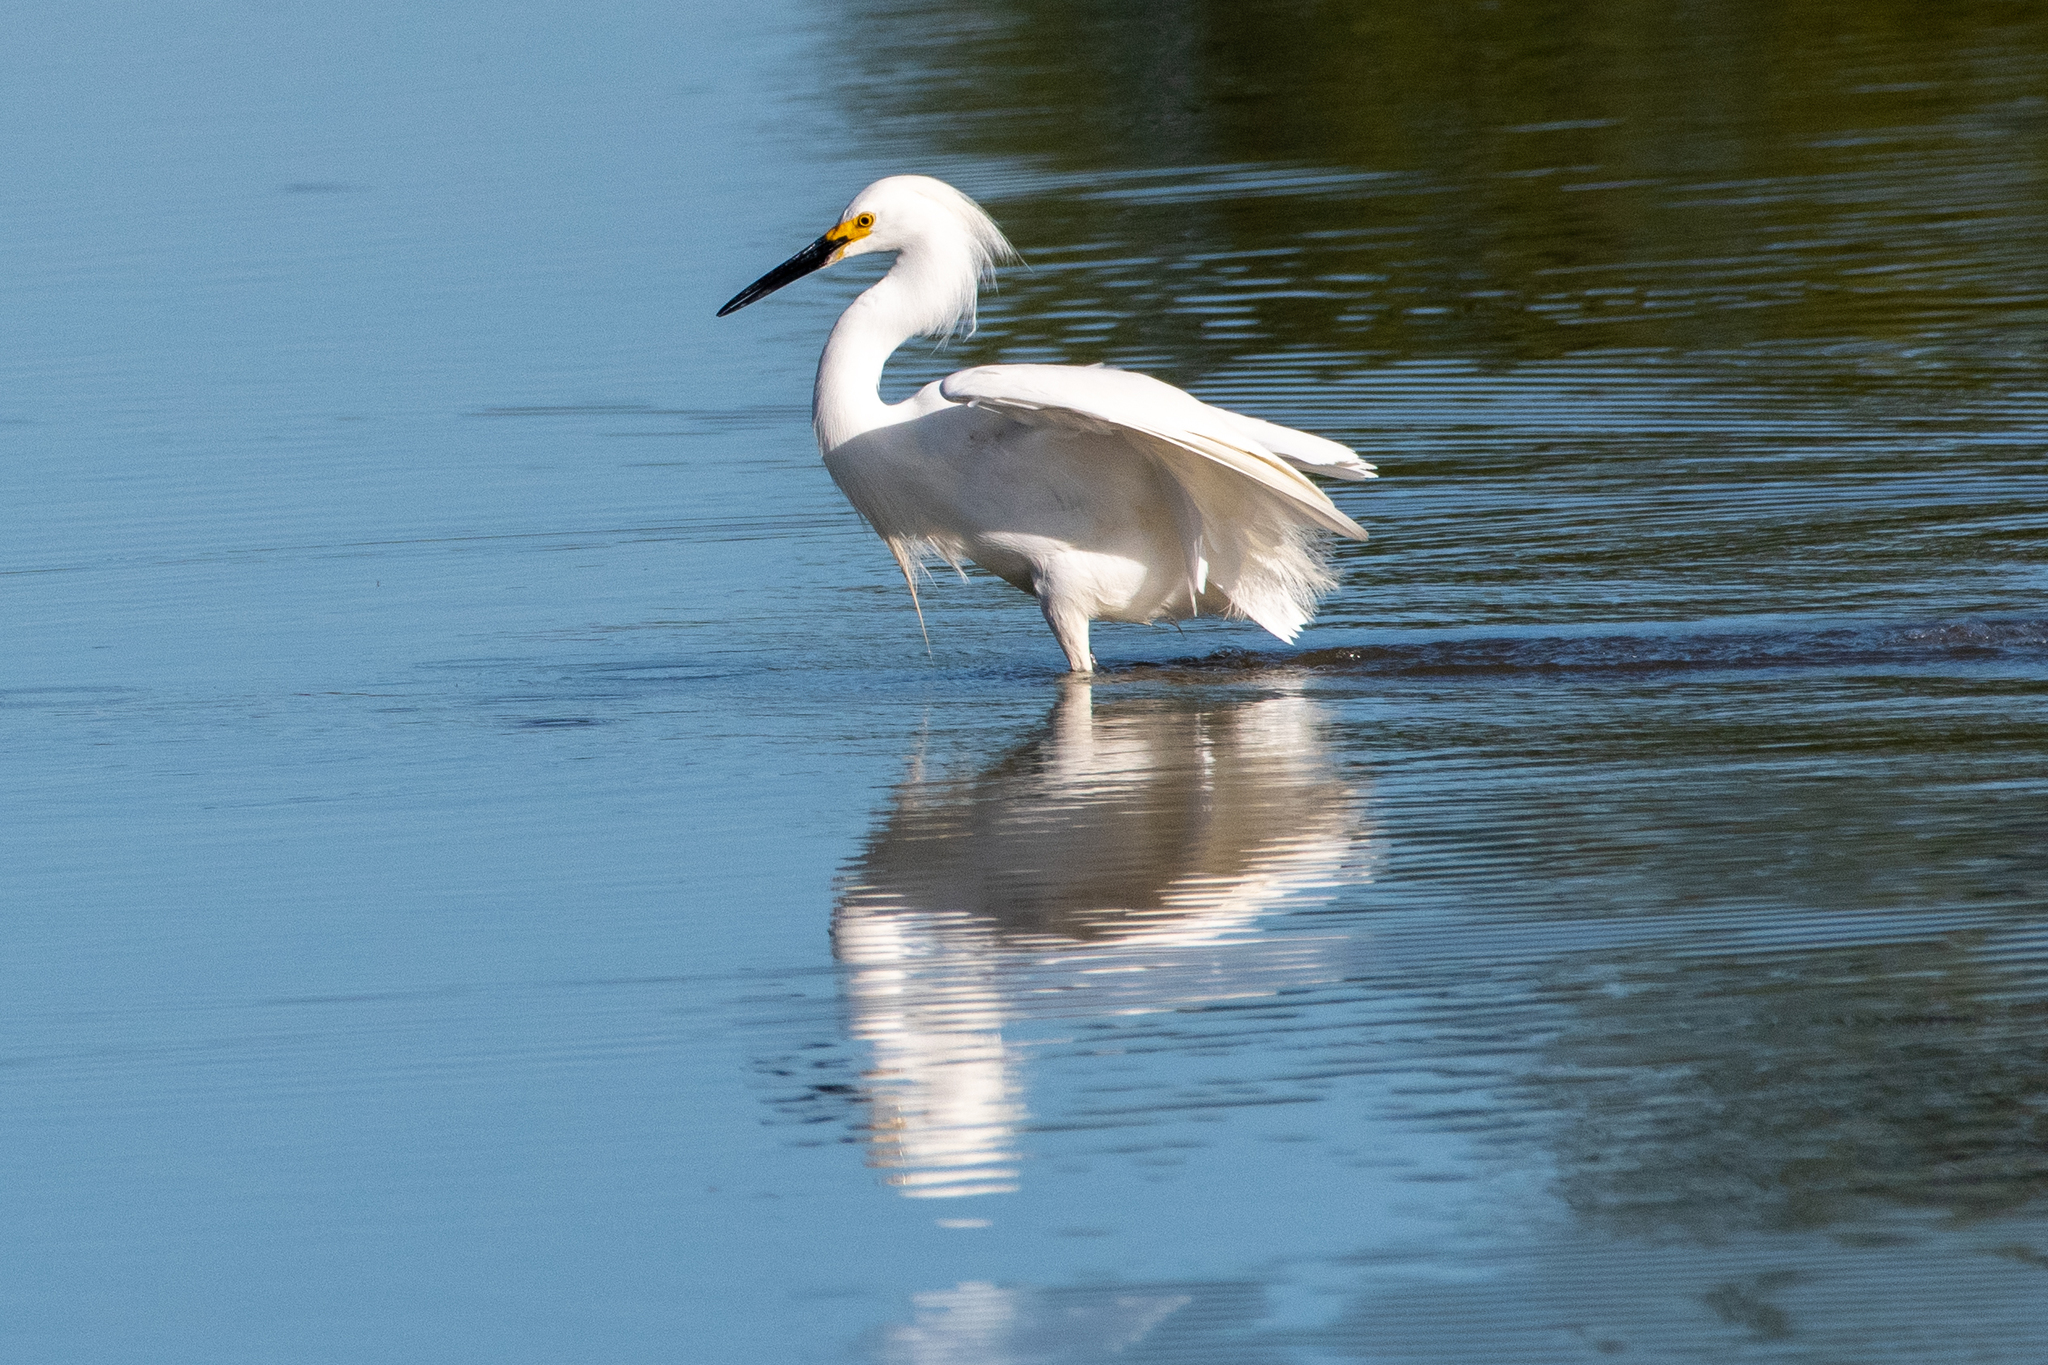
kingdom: Animalia
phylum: Chordata
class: Aves
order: Pelecaniformes
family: Ardeidae
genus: Egretta
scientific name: Egretta thula
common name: Snowy egret
